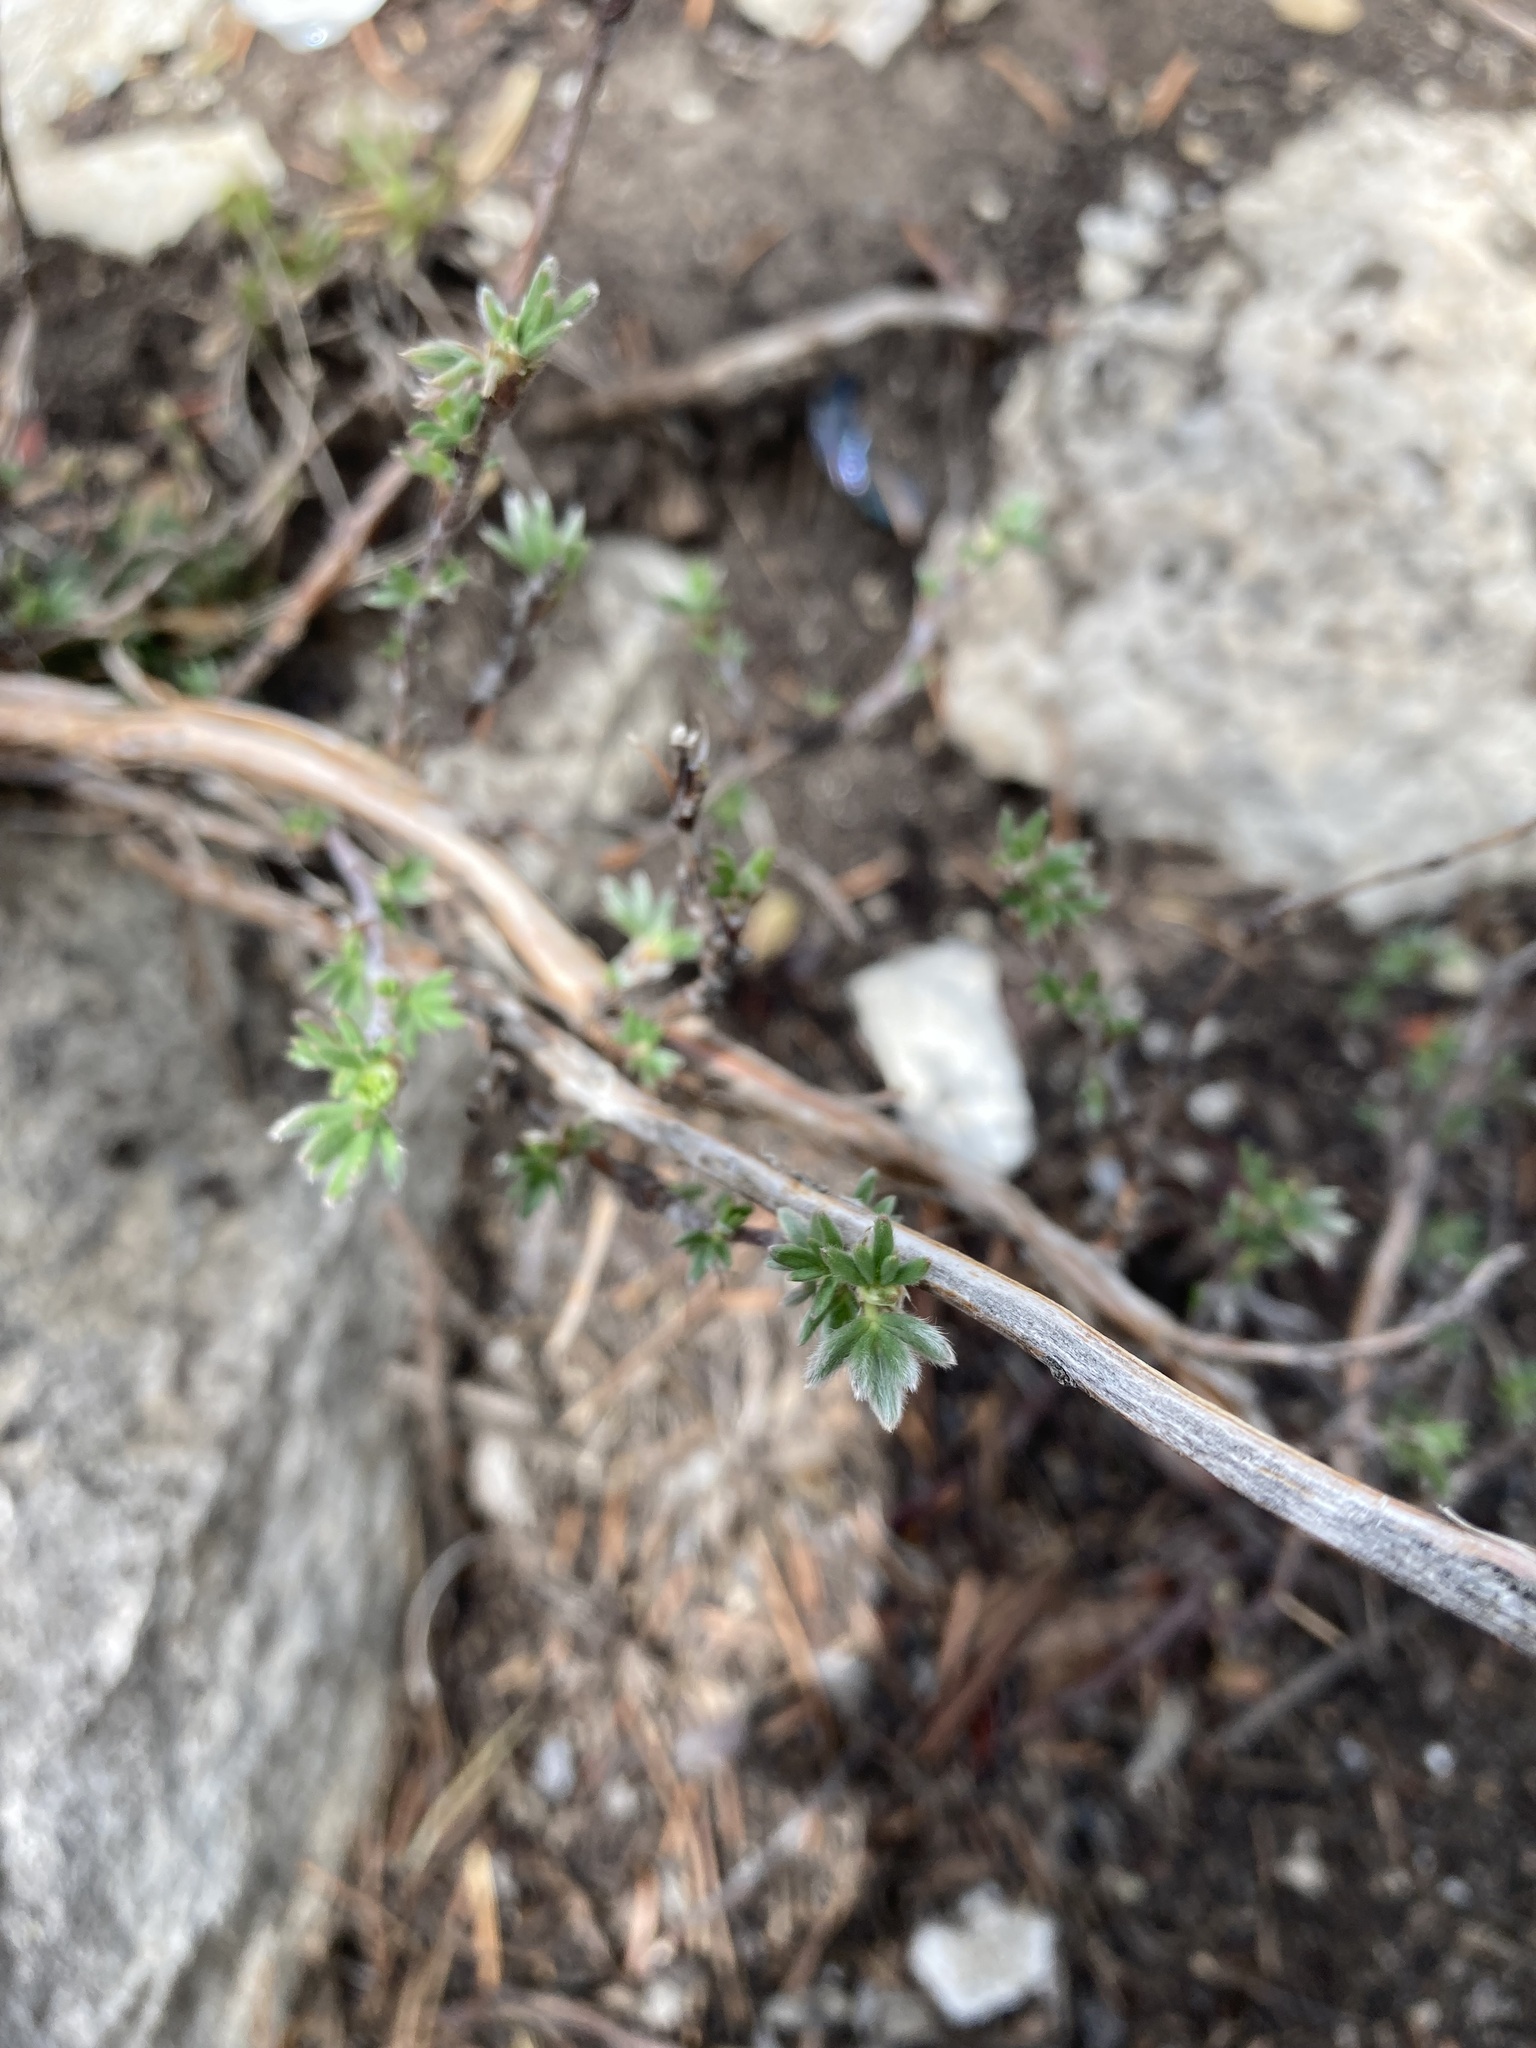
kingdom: Plantae
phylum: Tracheophyta
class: Magnoliopsida
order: Rosales
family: Rosaceae
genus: Dasiphora
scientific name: Dasiphora fruticosa
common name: Shrubby cinquefoil
